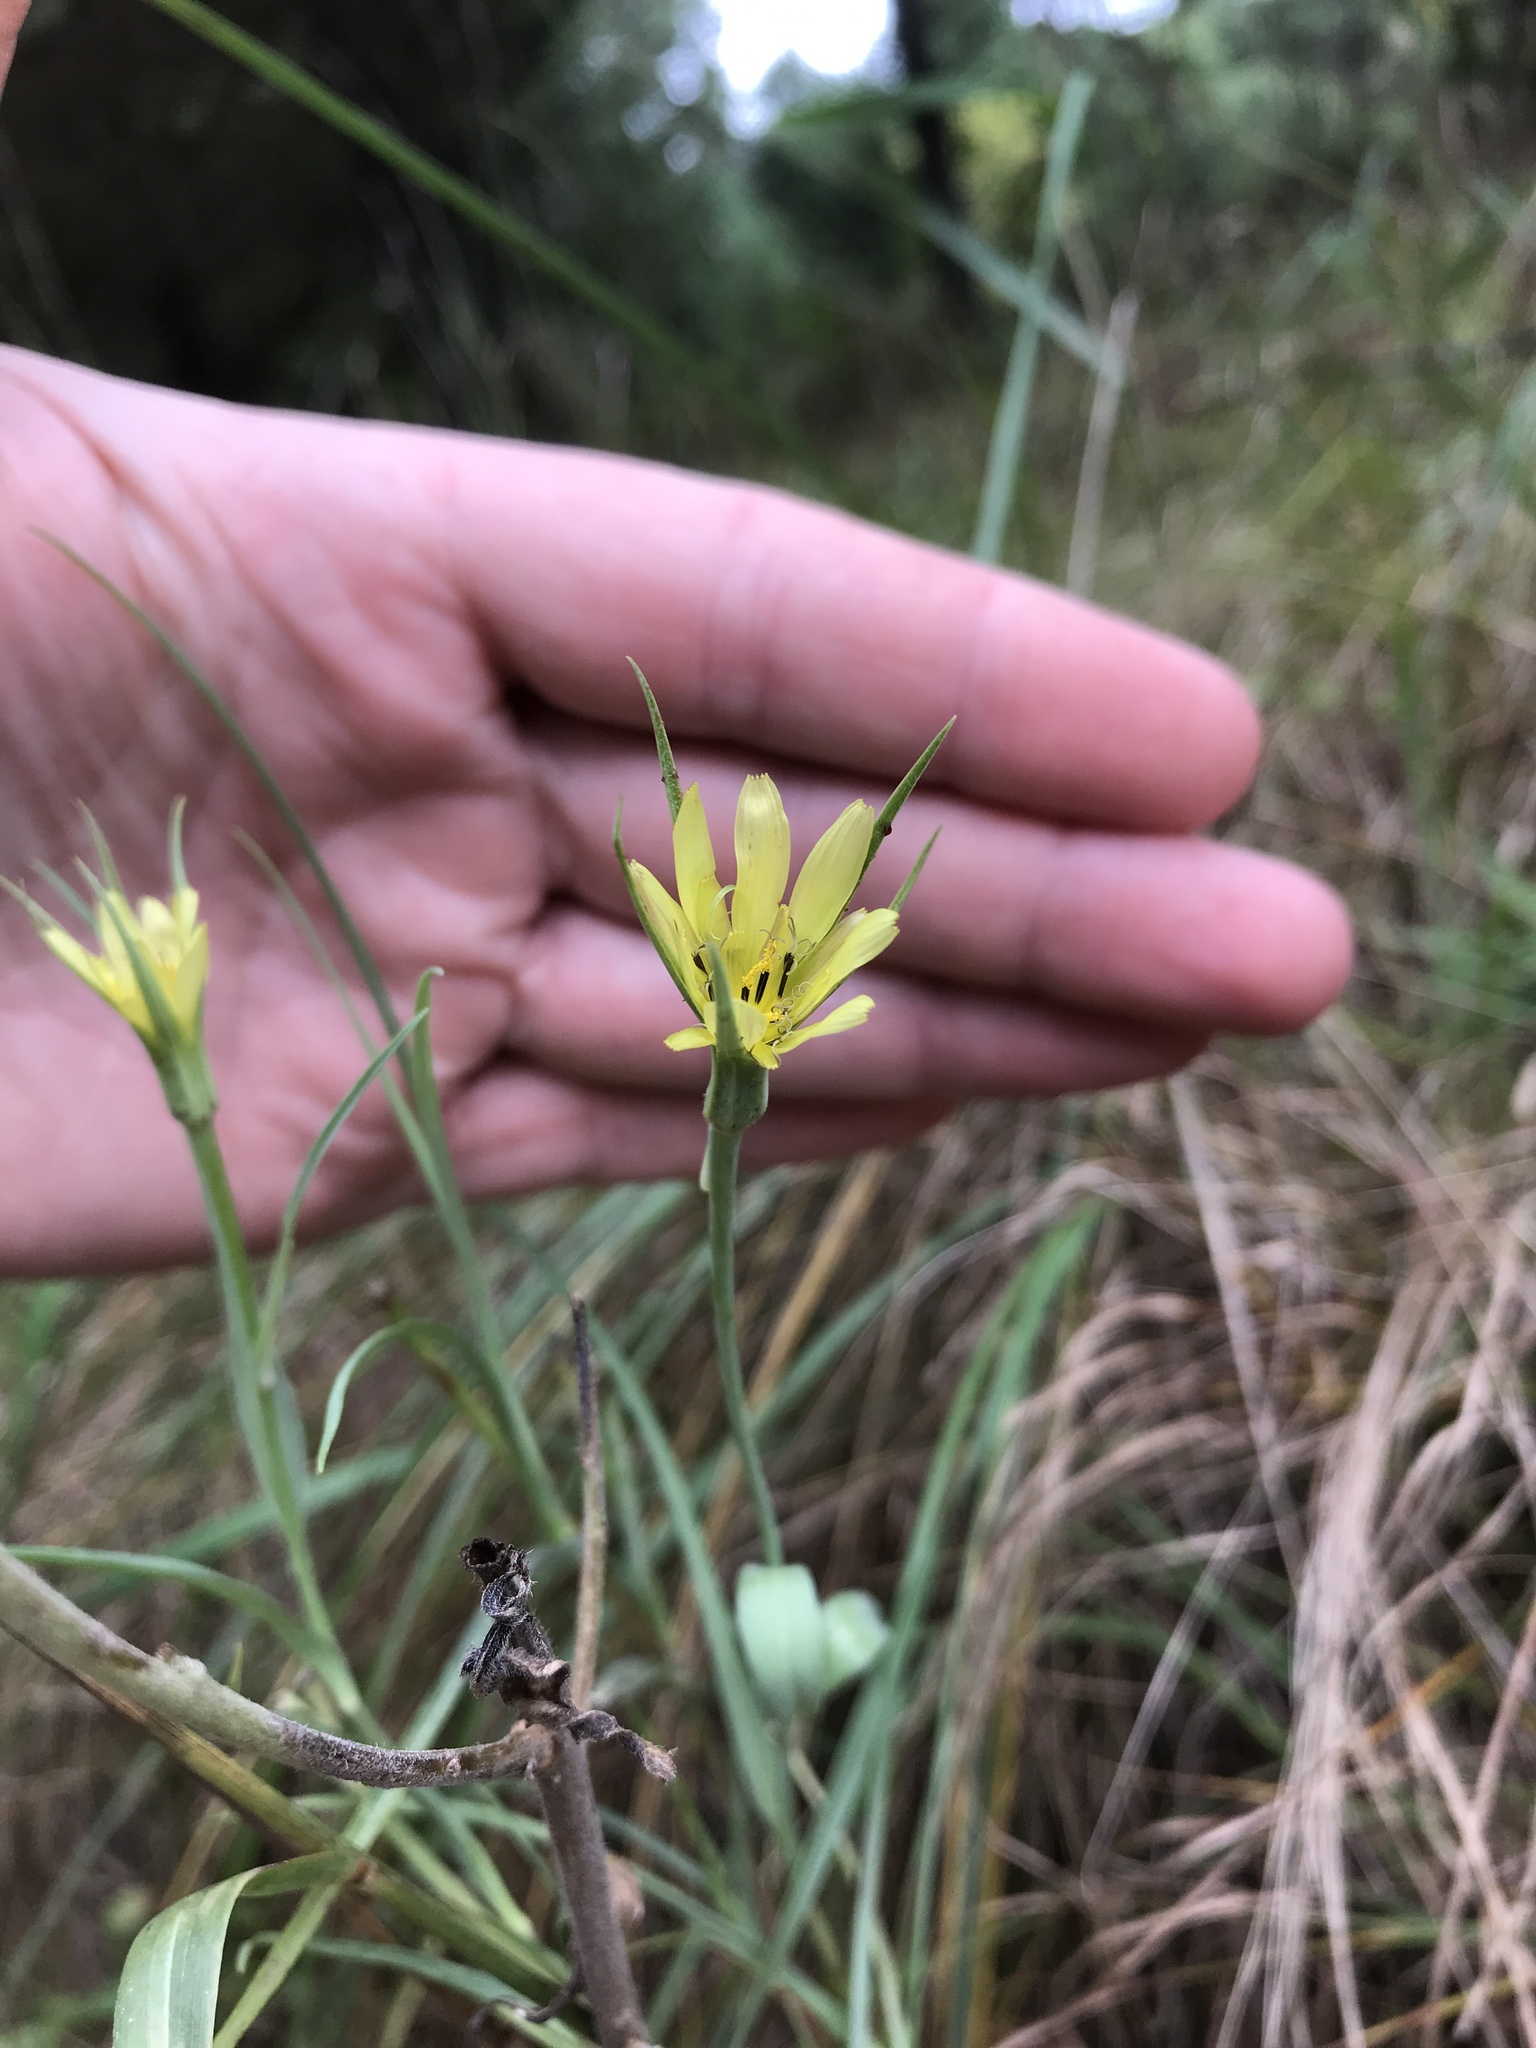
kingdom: Plantae
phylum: Tracheophyta
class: Magnoliopsida
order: Asterales
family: Asteraceae
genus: Tragopogon
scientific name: Tragopogon dubius
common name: Yellow salsify
